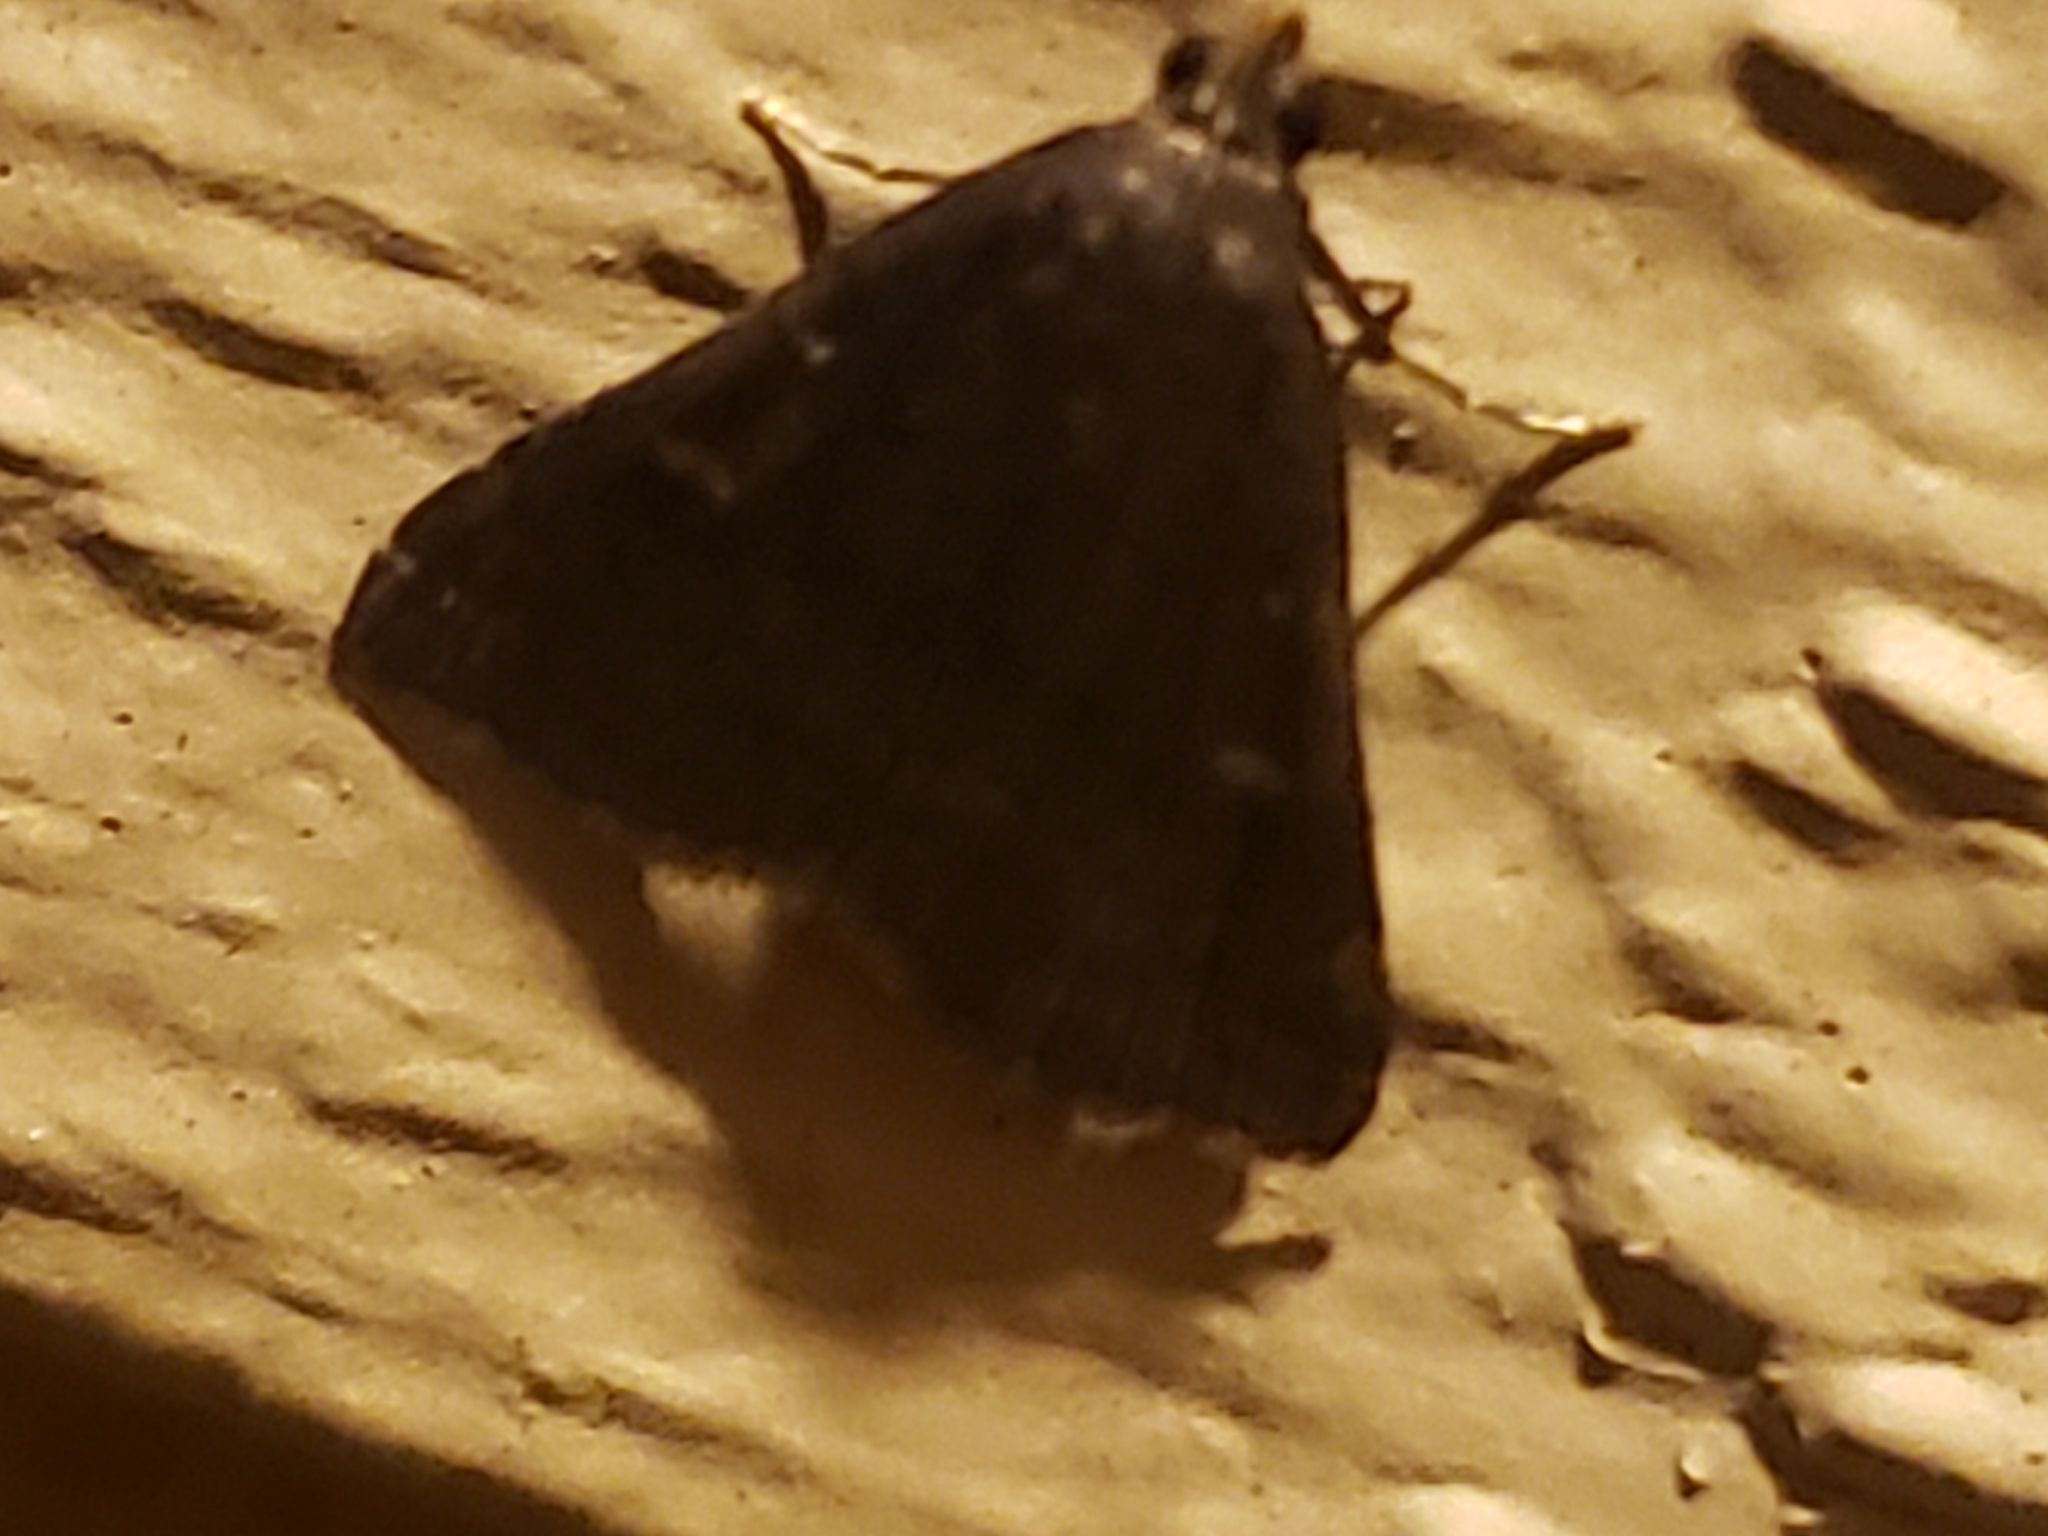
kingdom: Animalia
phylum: Arthropoda
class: Insecta
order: Lepidoptera
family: Erebidae
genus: Tetanolita
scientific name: Tetanolita mynesalis
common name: Smoky tetanolita moth
